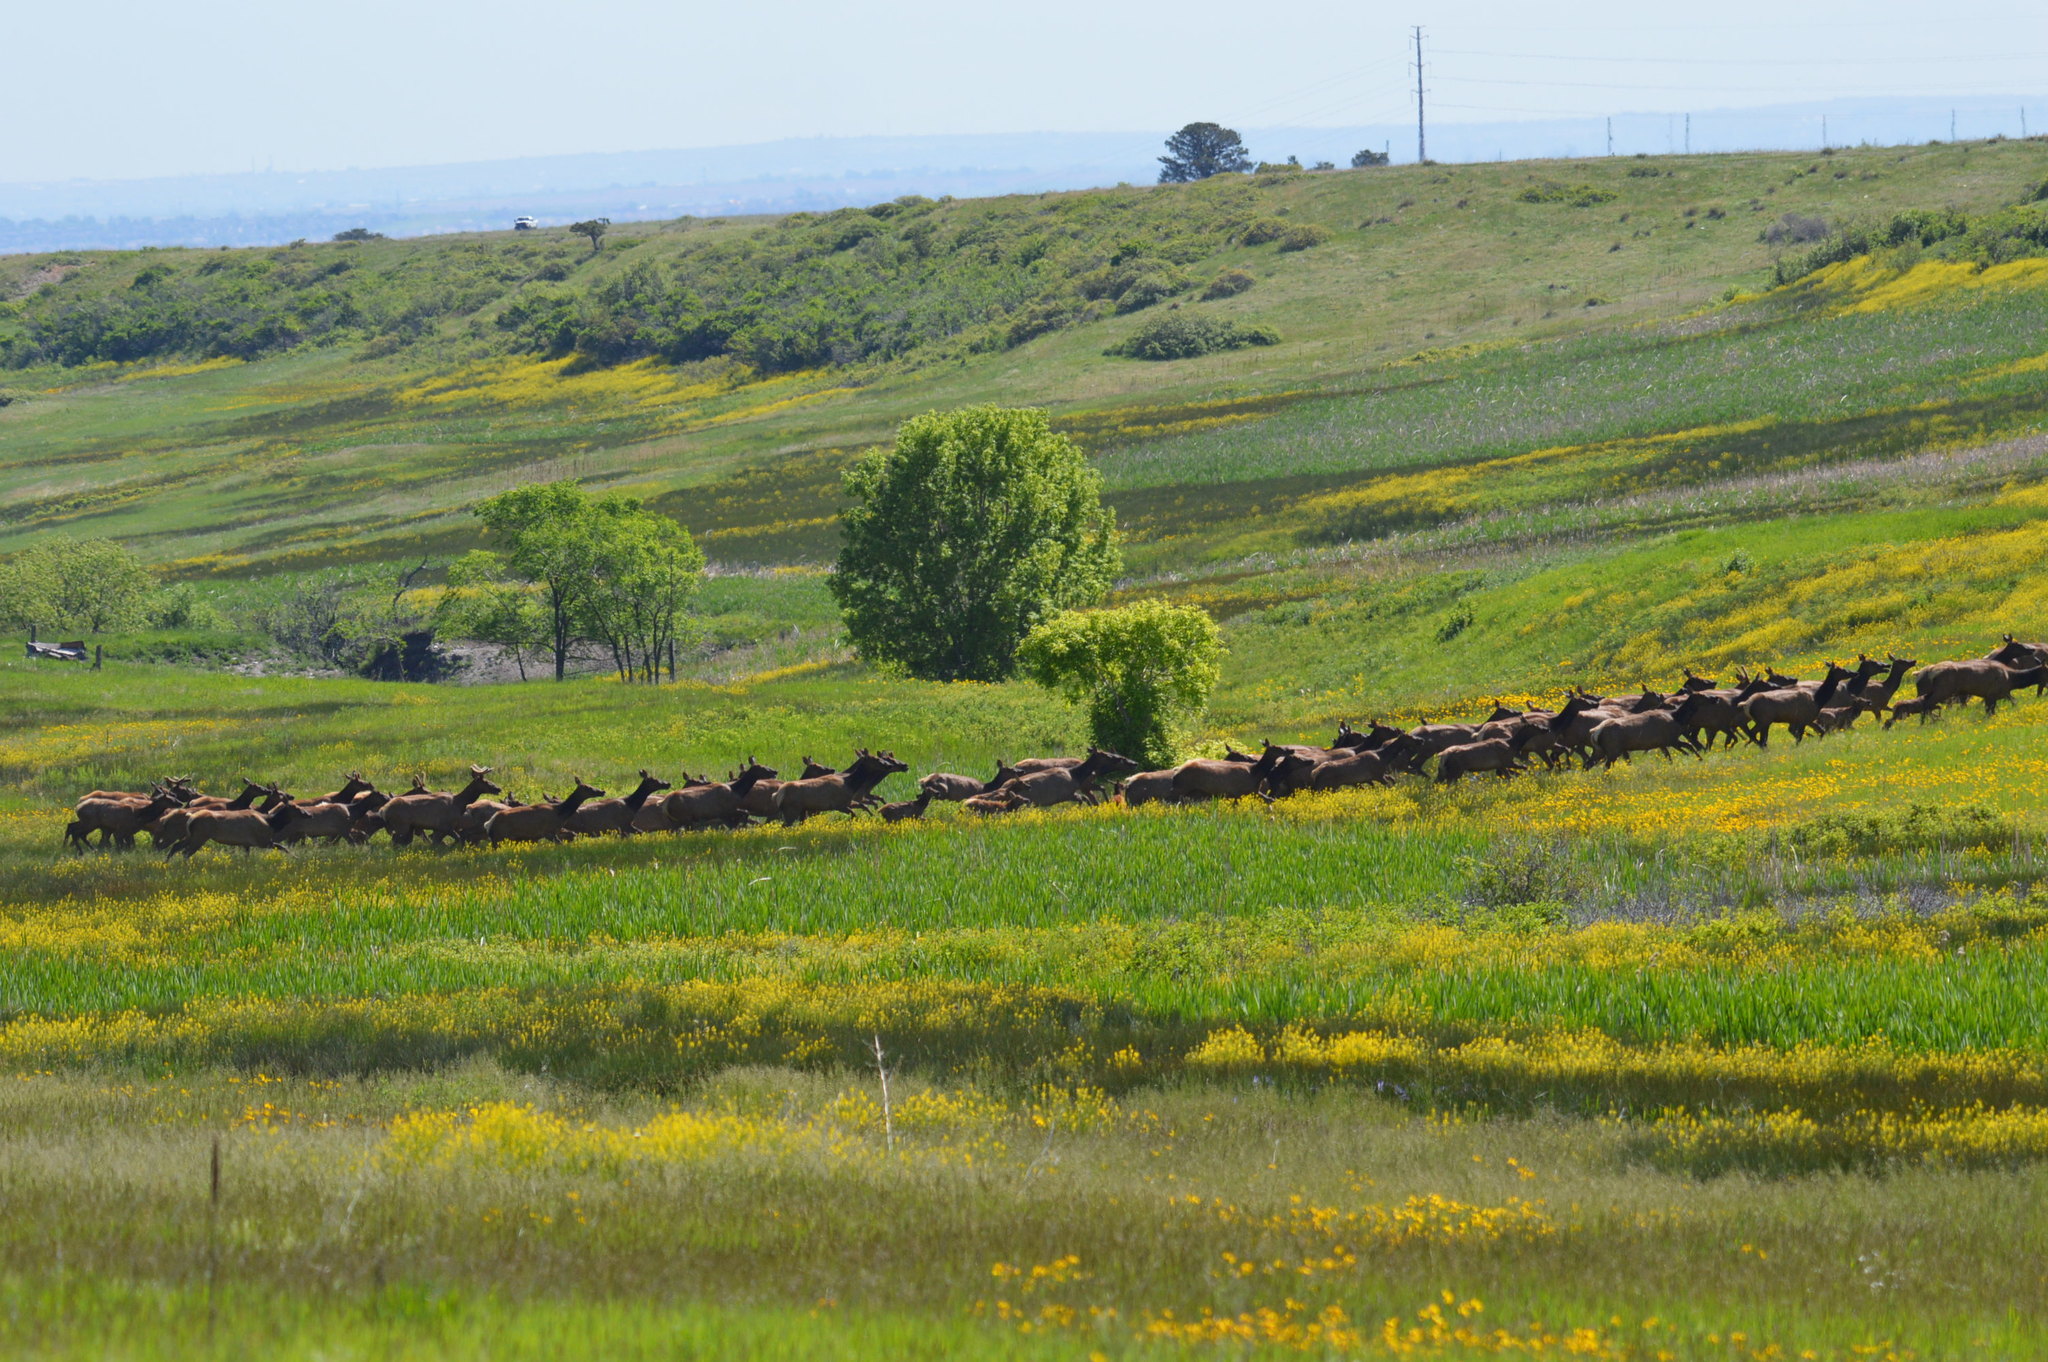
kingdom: Animalia
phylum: Chordata
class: Mammalia
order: Artiodactyla
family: Cervidae
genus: Cervus
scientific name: Cervus elaphus
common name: Red deer
